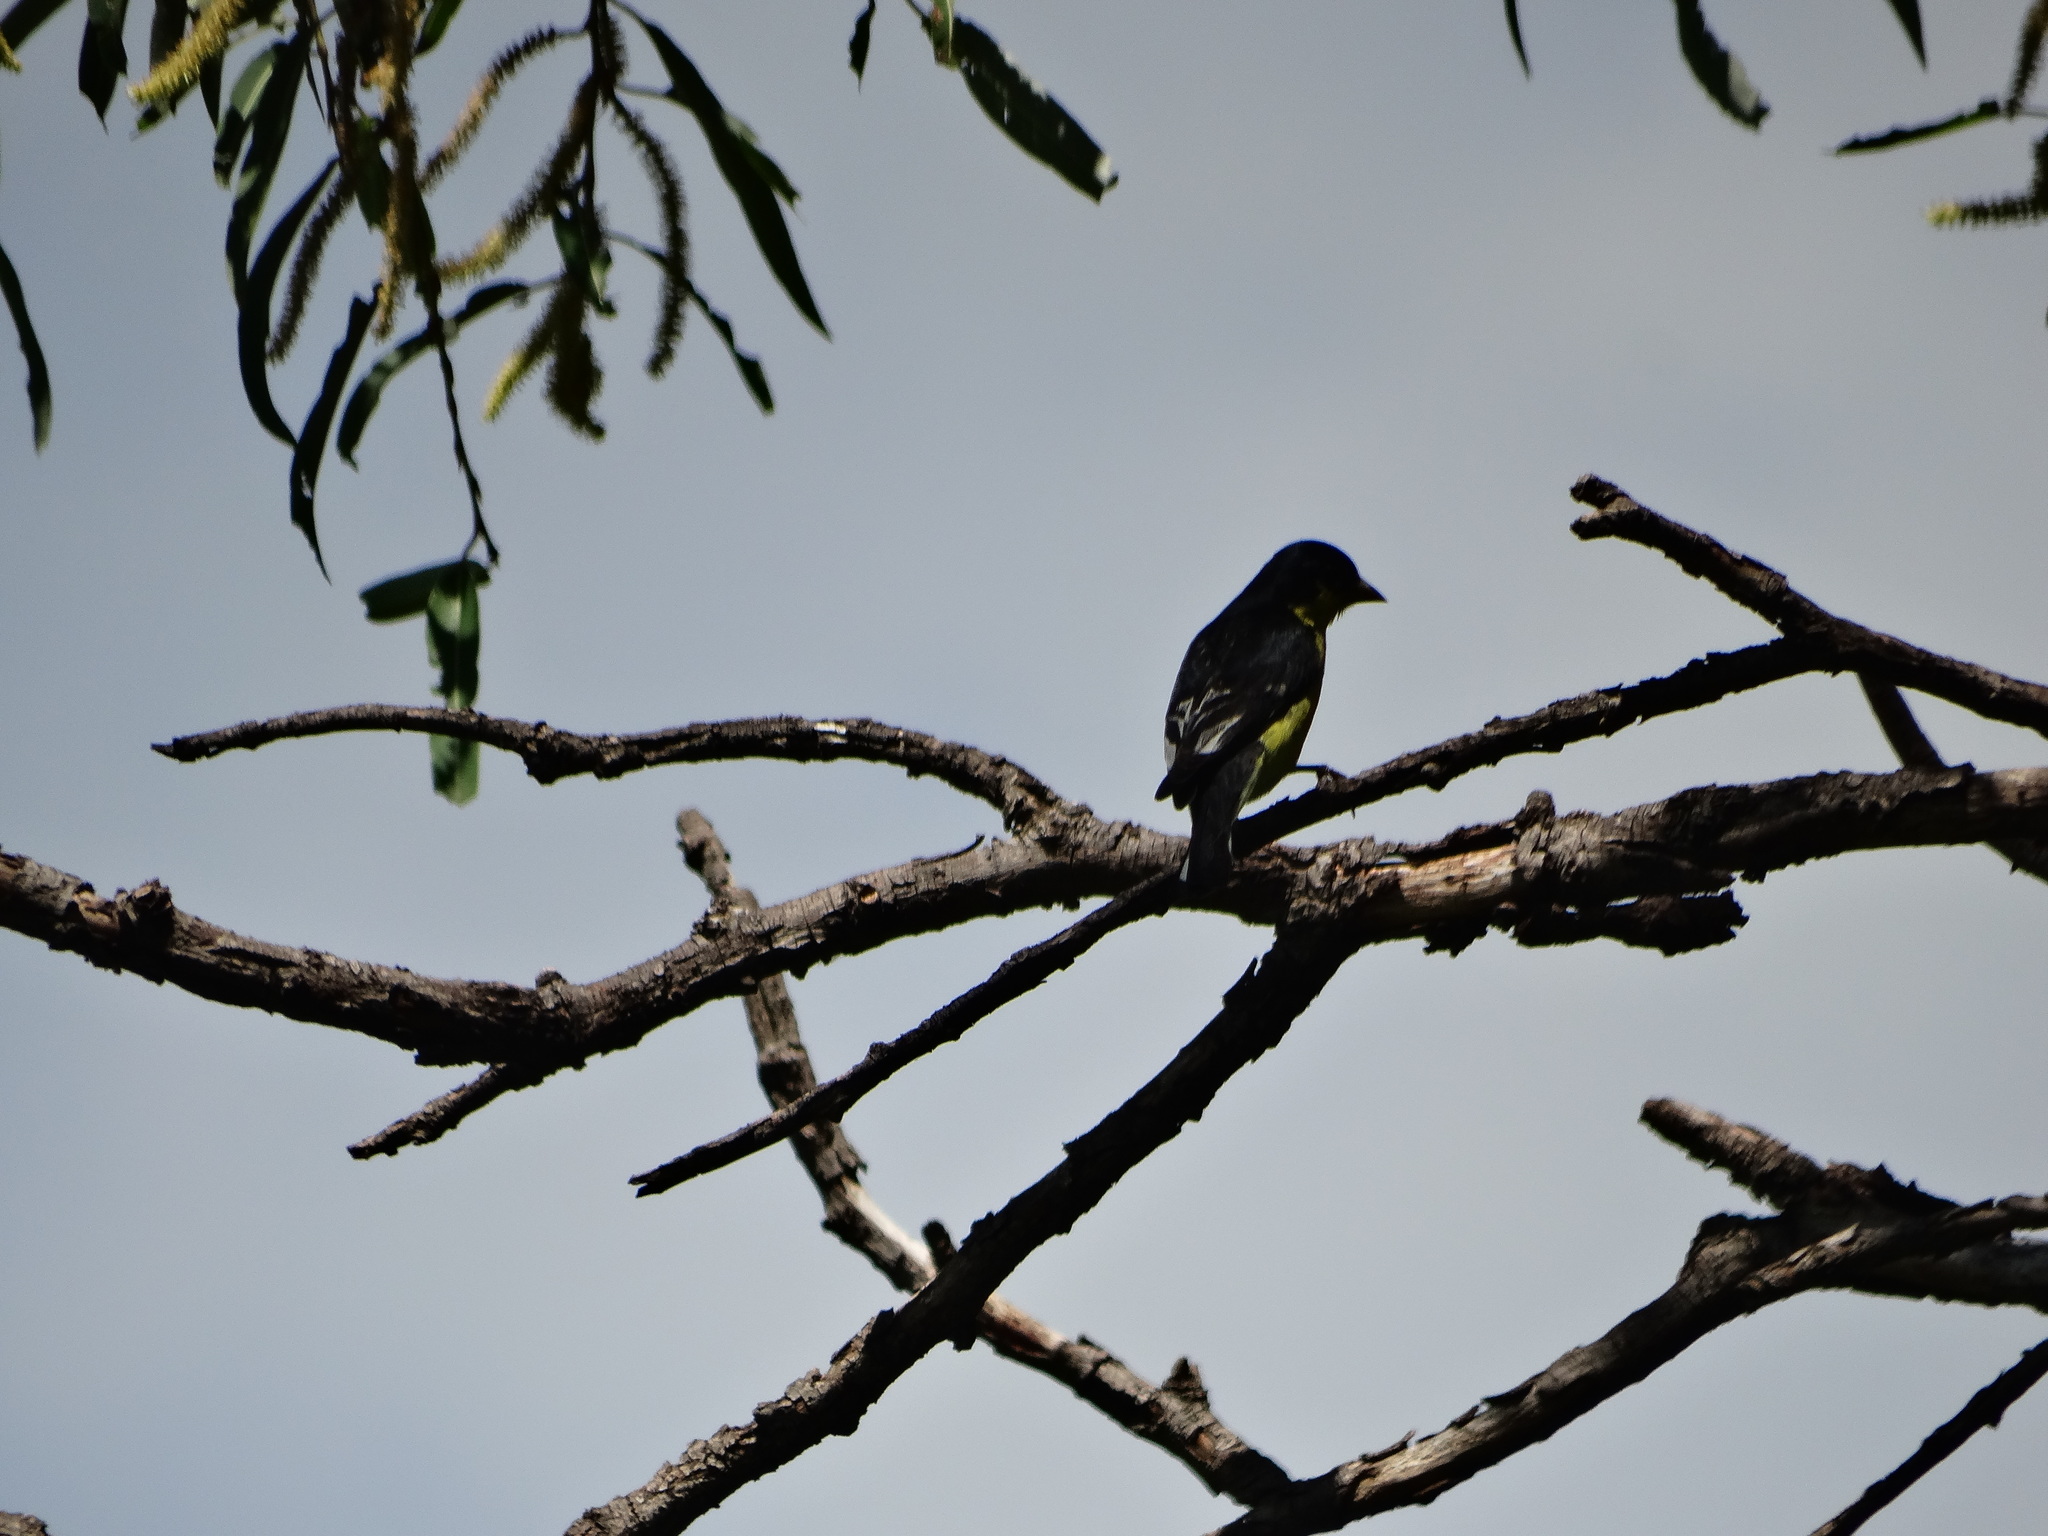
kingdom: Animalia
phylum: Chordata
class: Aves
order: Passeriformes
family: Fringillidae
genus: Spinus
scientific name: Spinus psaltria
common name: Lesser goldfinch
